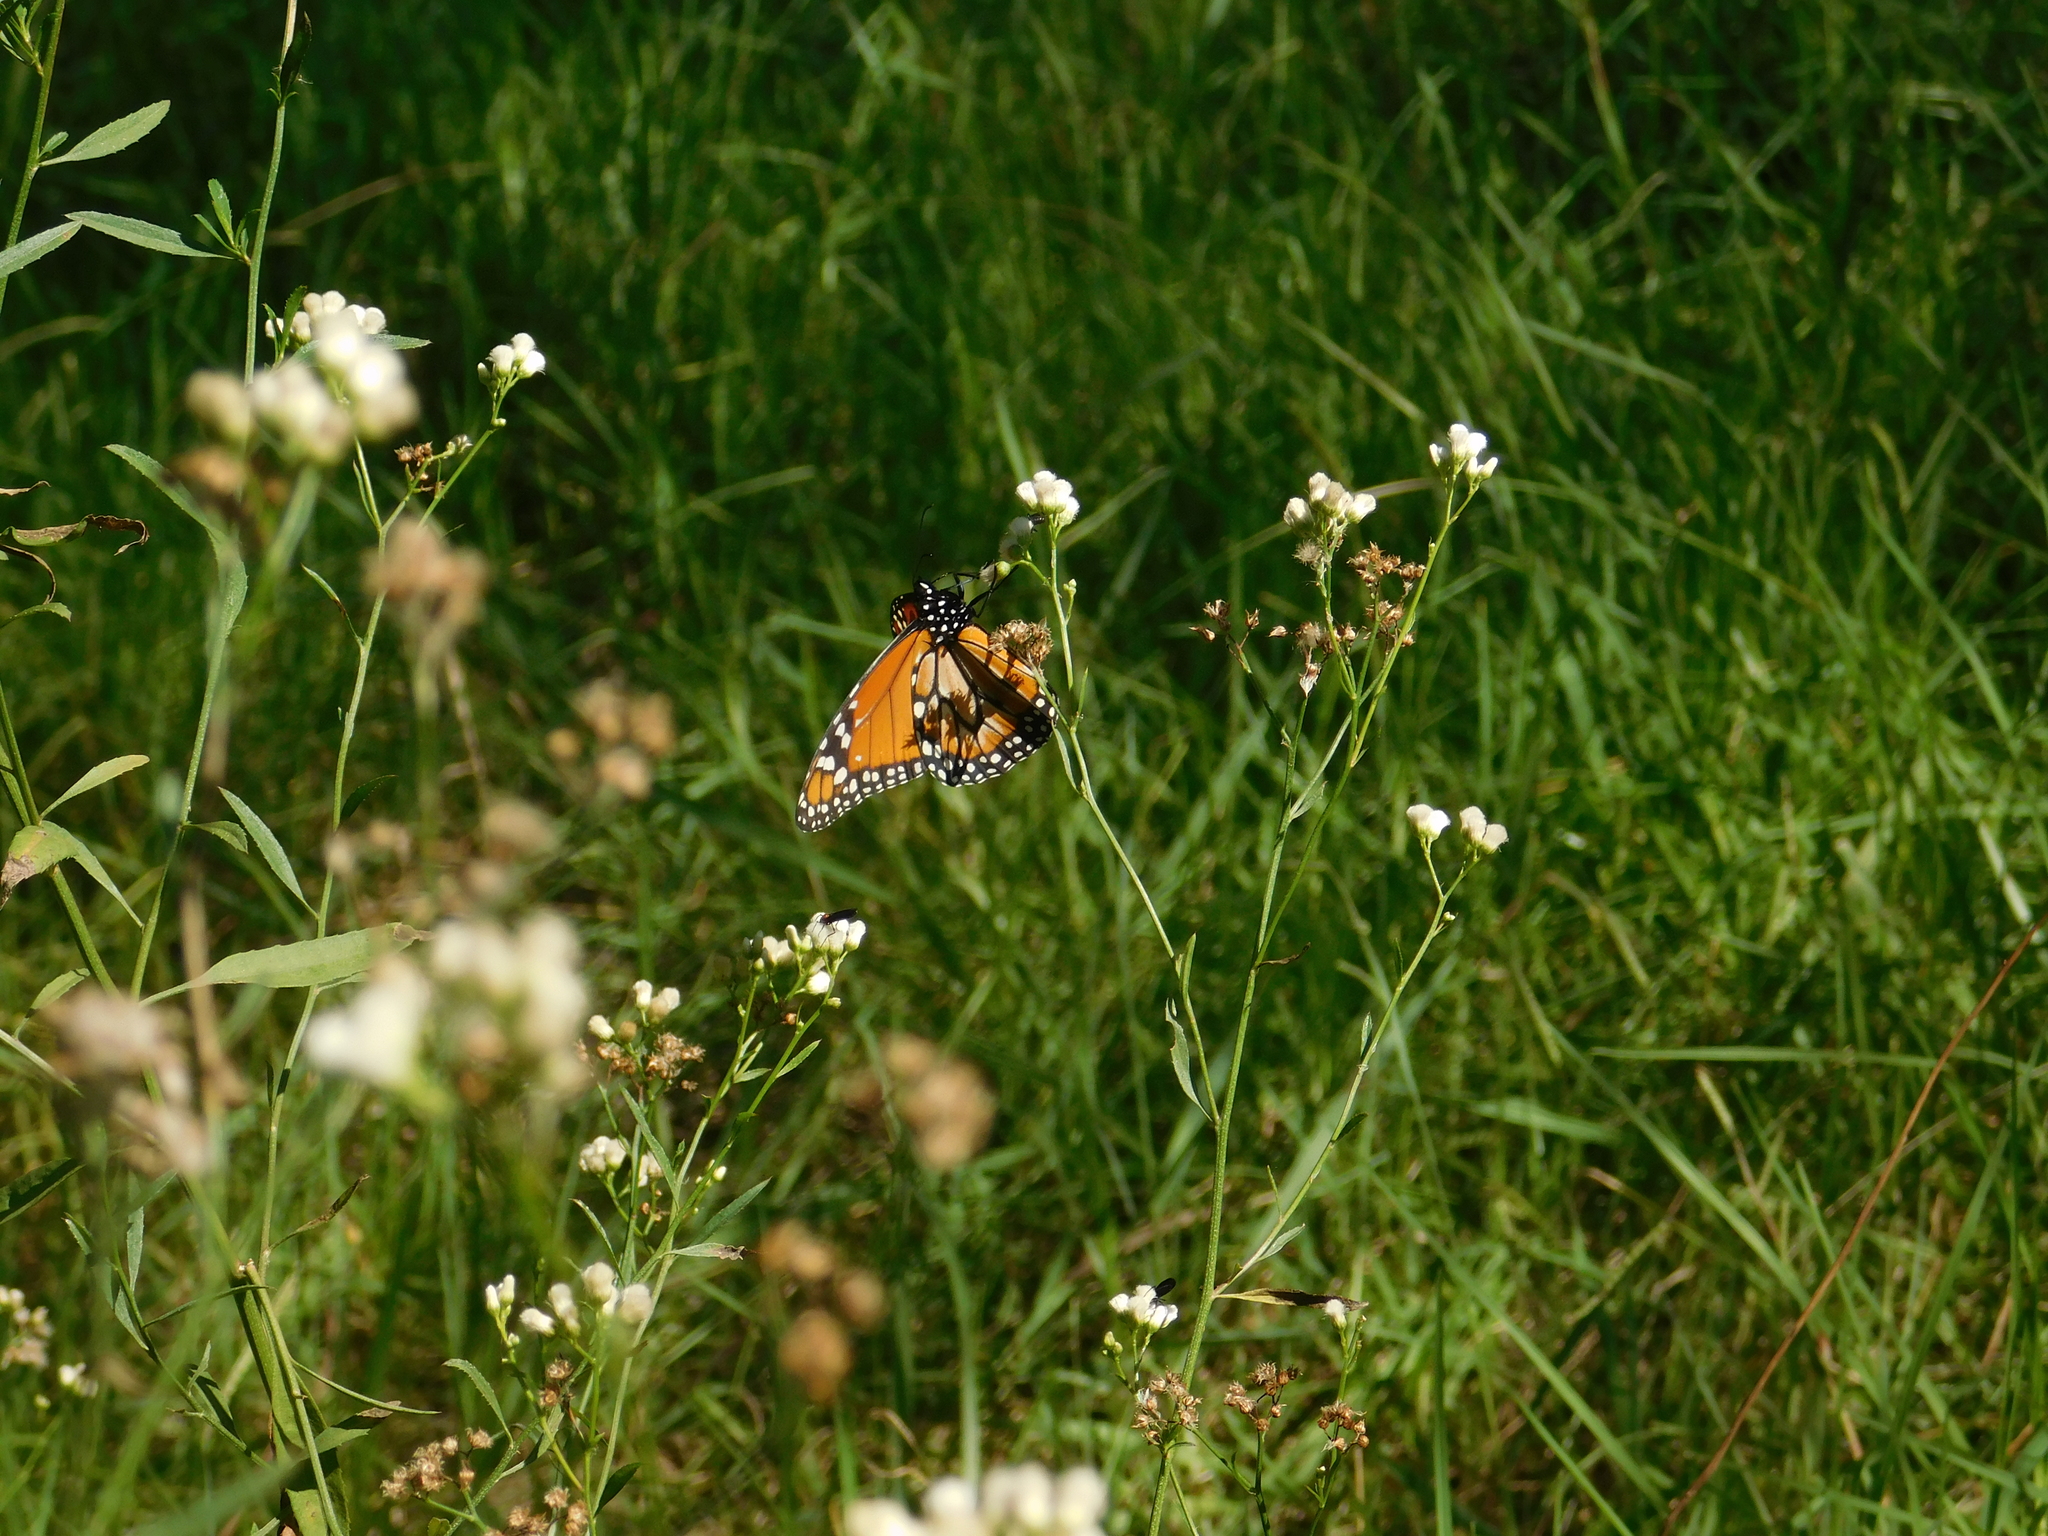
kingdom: Animalia
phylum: Arthropoda
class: Insecta
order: Lepidoptera
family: Nymphalidae
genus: Danaus
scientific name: Danaus erippus
